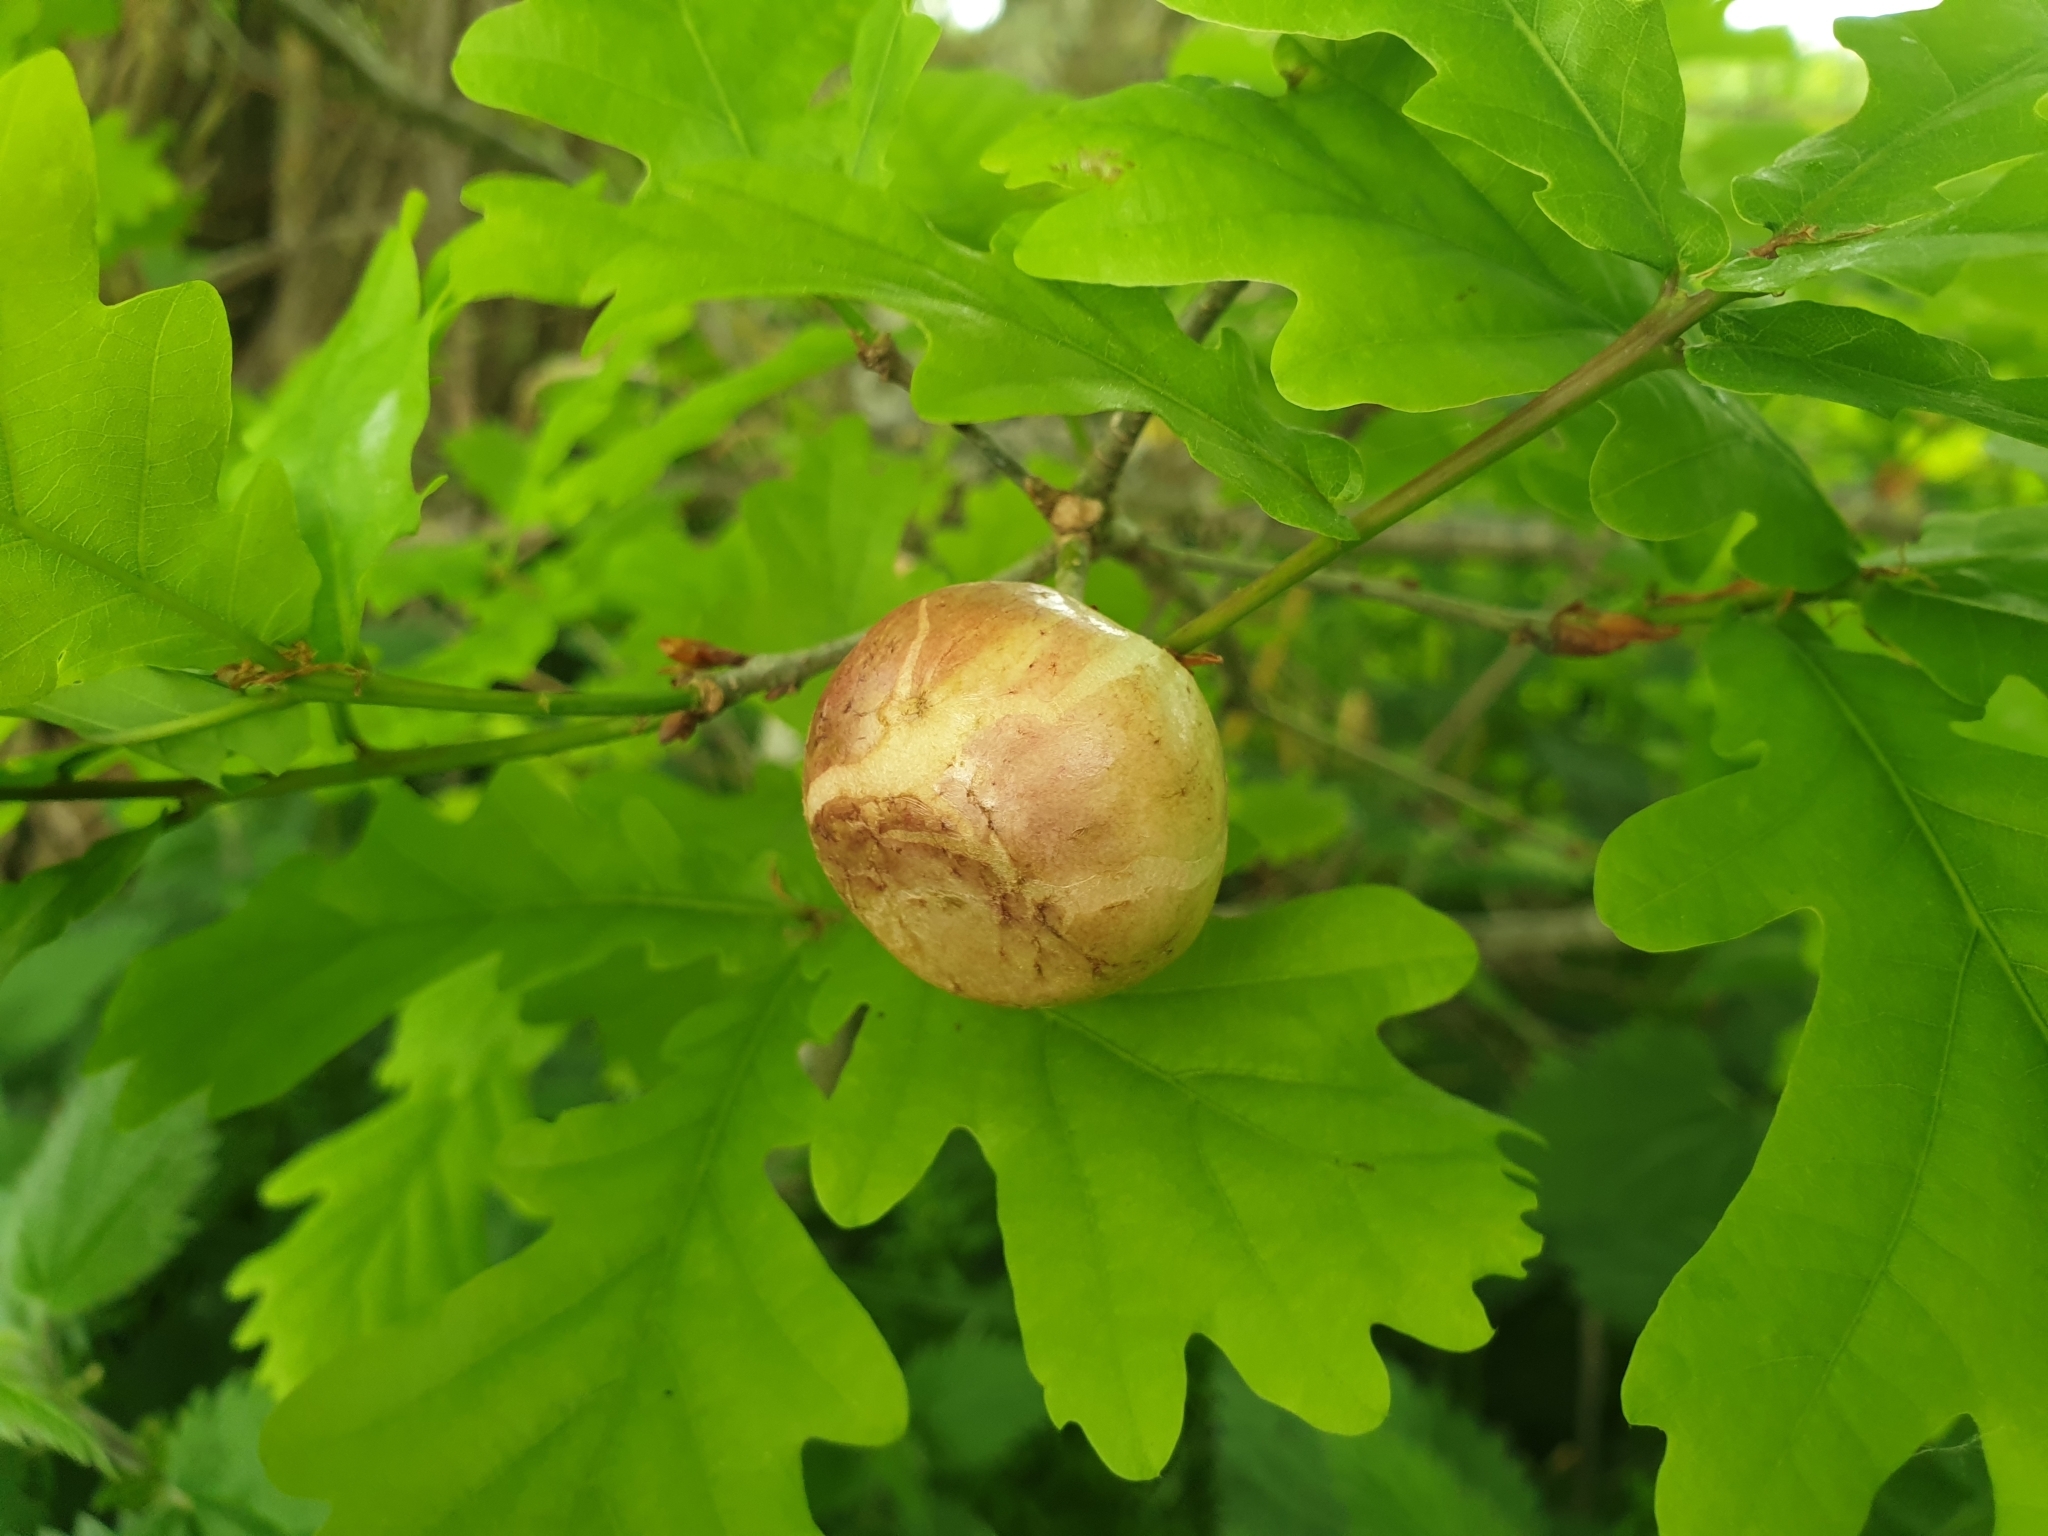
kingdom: Animalia
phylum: Arthropoda
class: Insecta
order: Hymenoptera
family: Cynipidae
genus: Biorhiza
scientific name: Biorhiza pallida
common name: Oak apple
